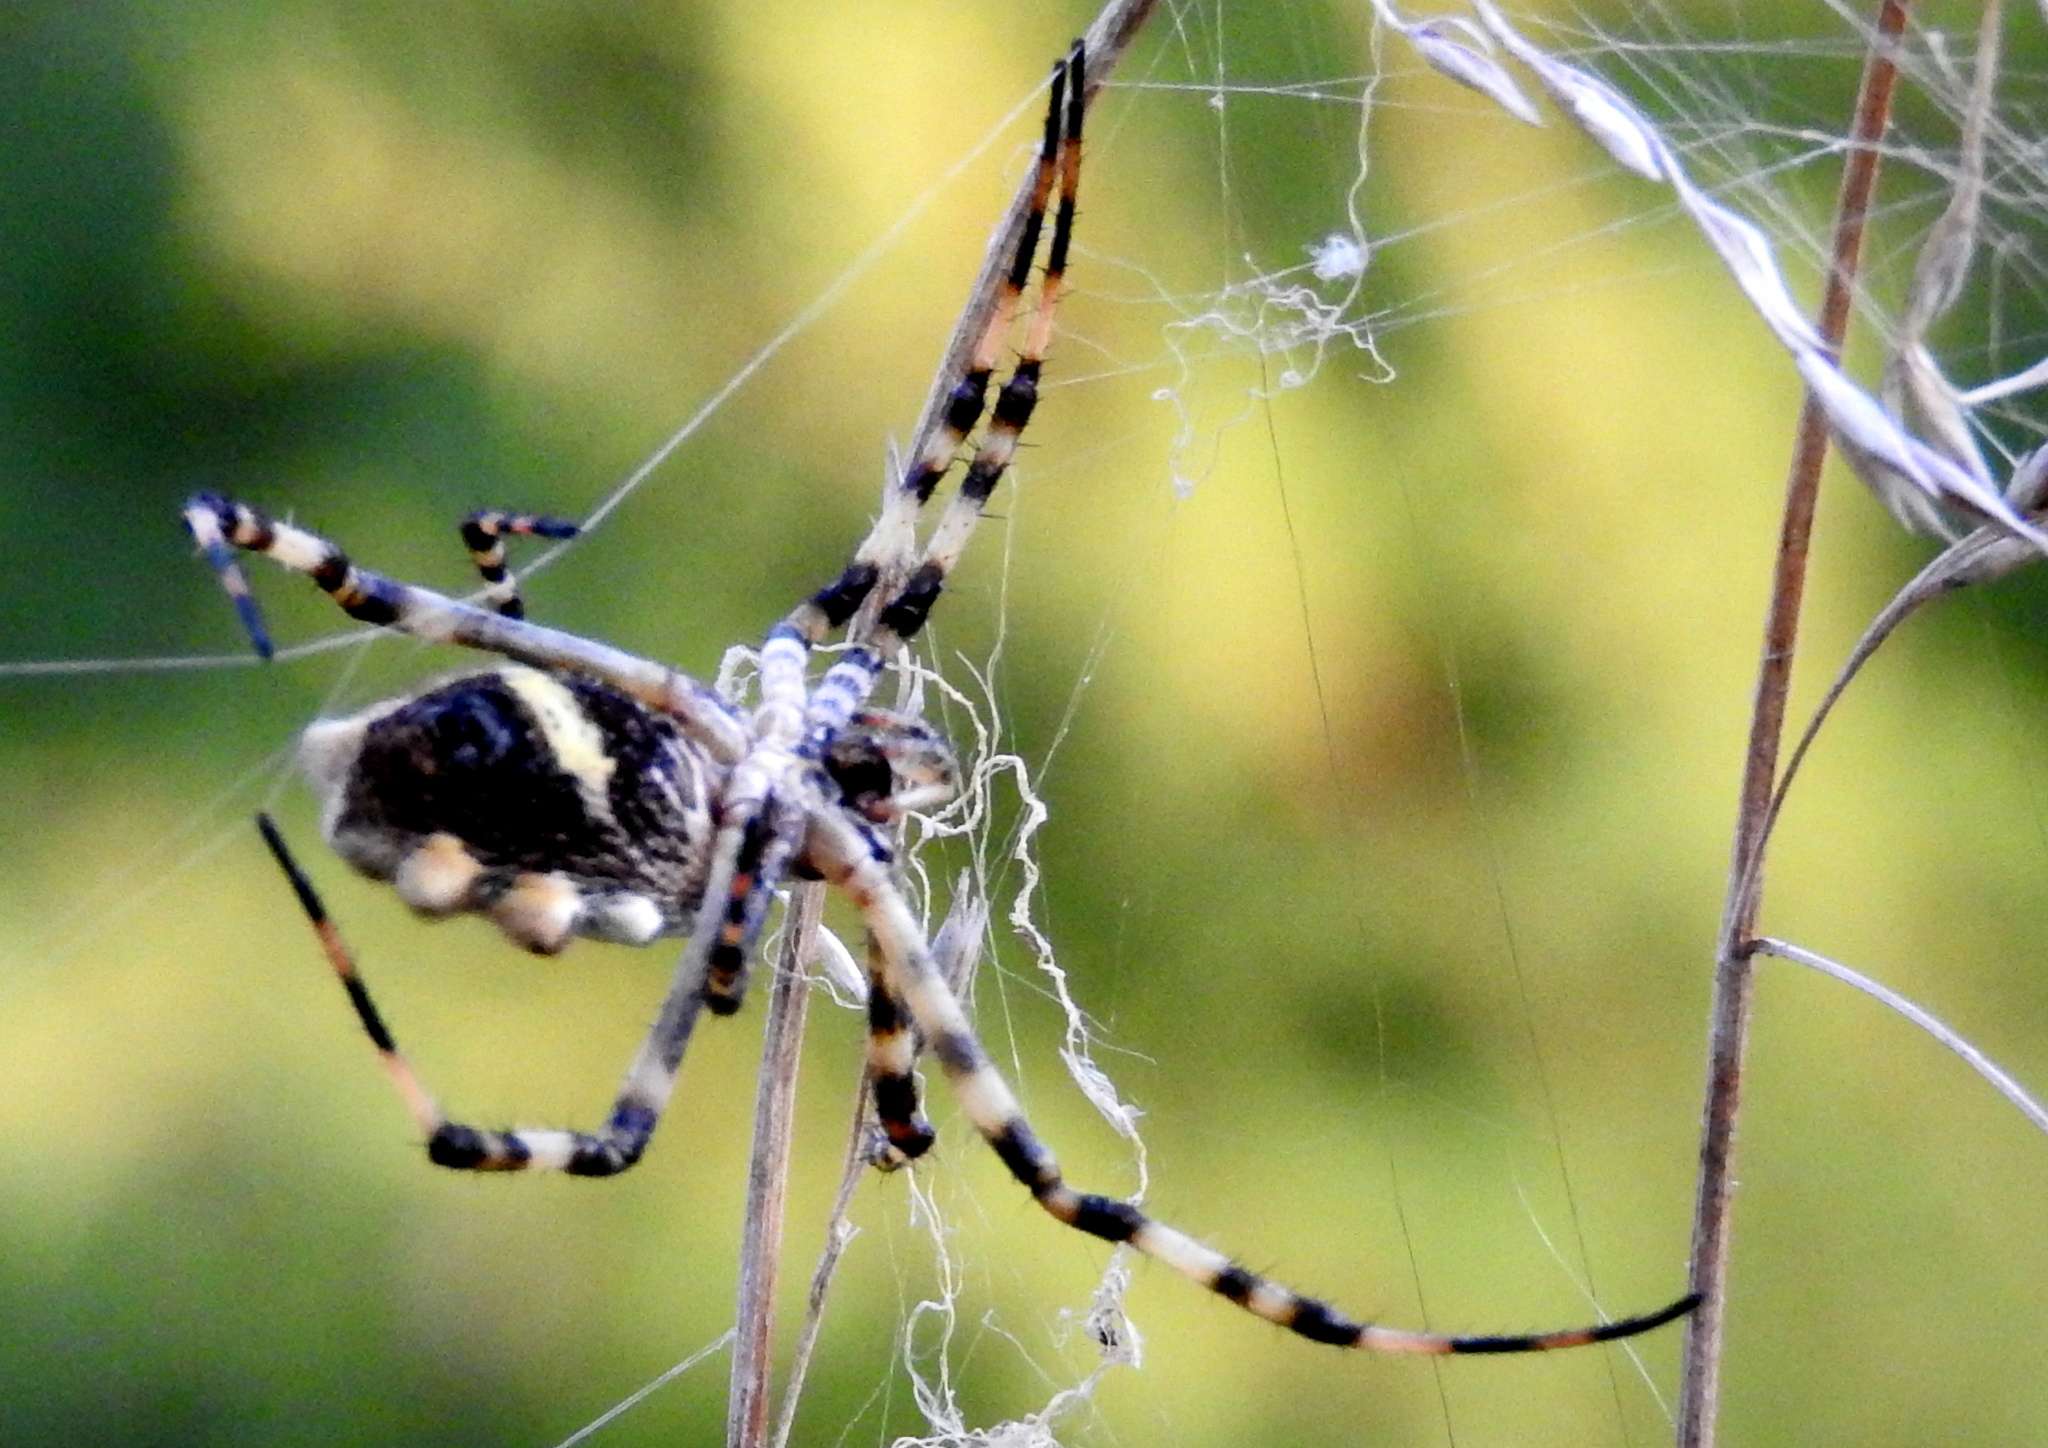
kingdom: Animalia
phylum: Arthropoda
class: Arachnida
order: Araneae
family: Araneidae
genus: Argiope
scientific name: Argiope argentata
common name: Orb weavers
